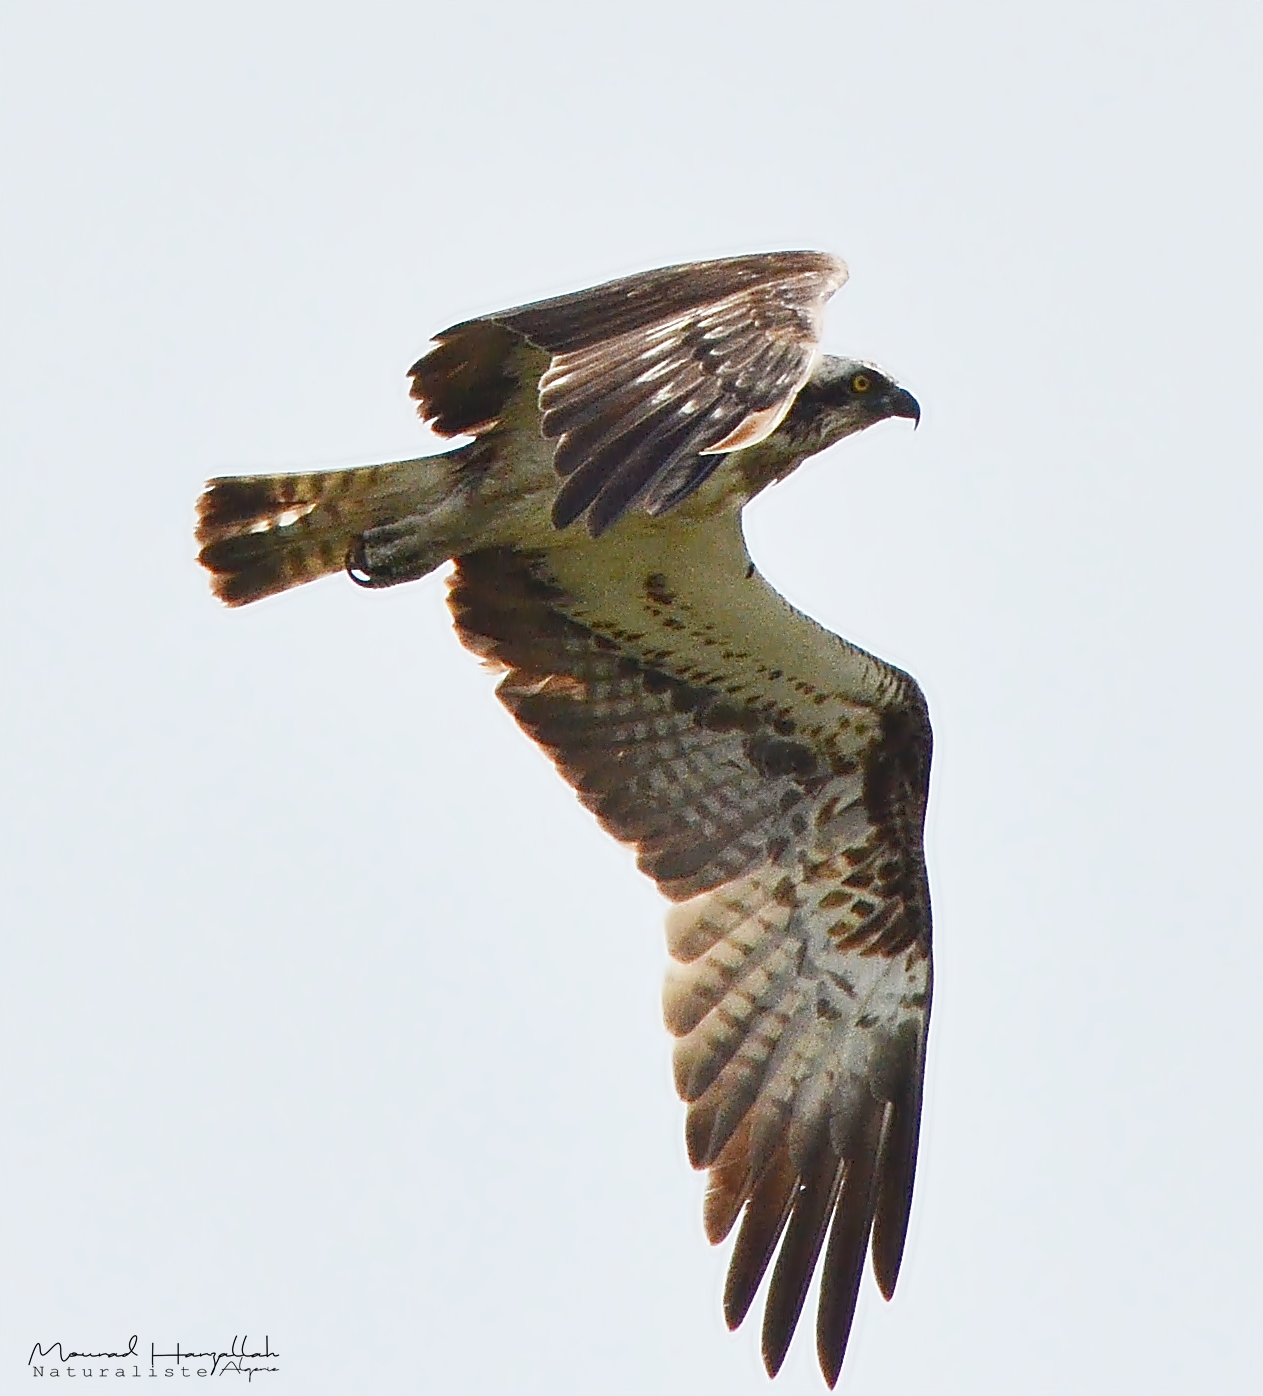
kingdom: Animalia
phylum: Chordata
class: Aves
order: Accipitriformes
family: Pandionidae
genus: Pandion
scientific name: Pandion haliaetus
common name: Osprey
